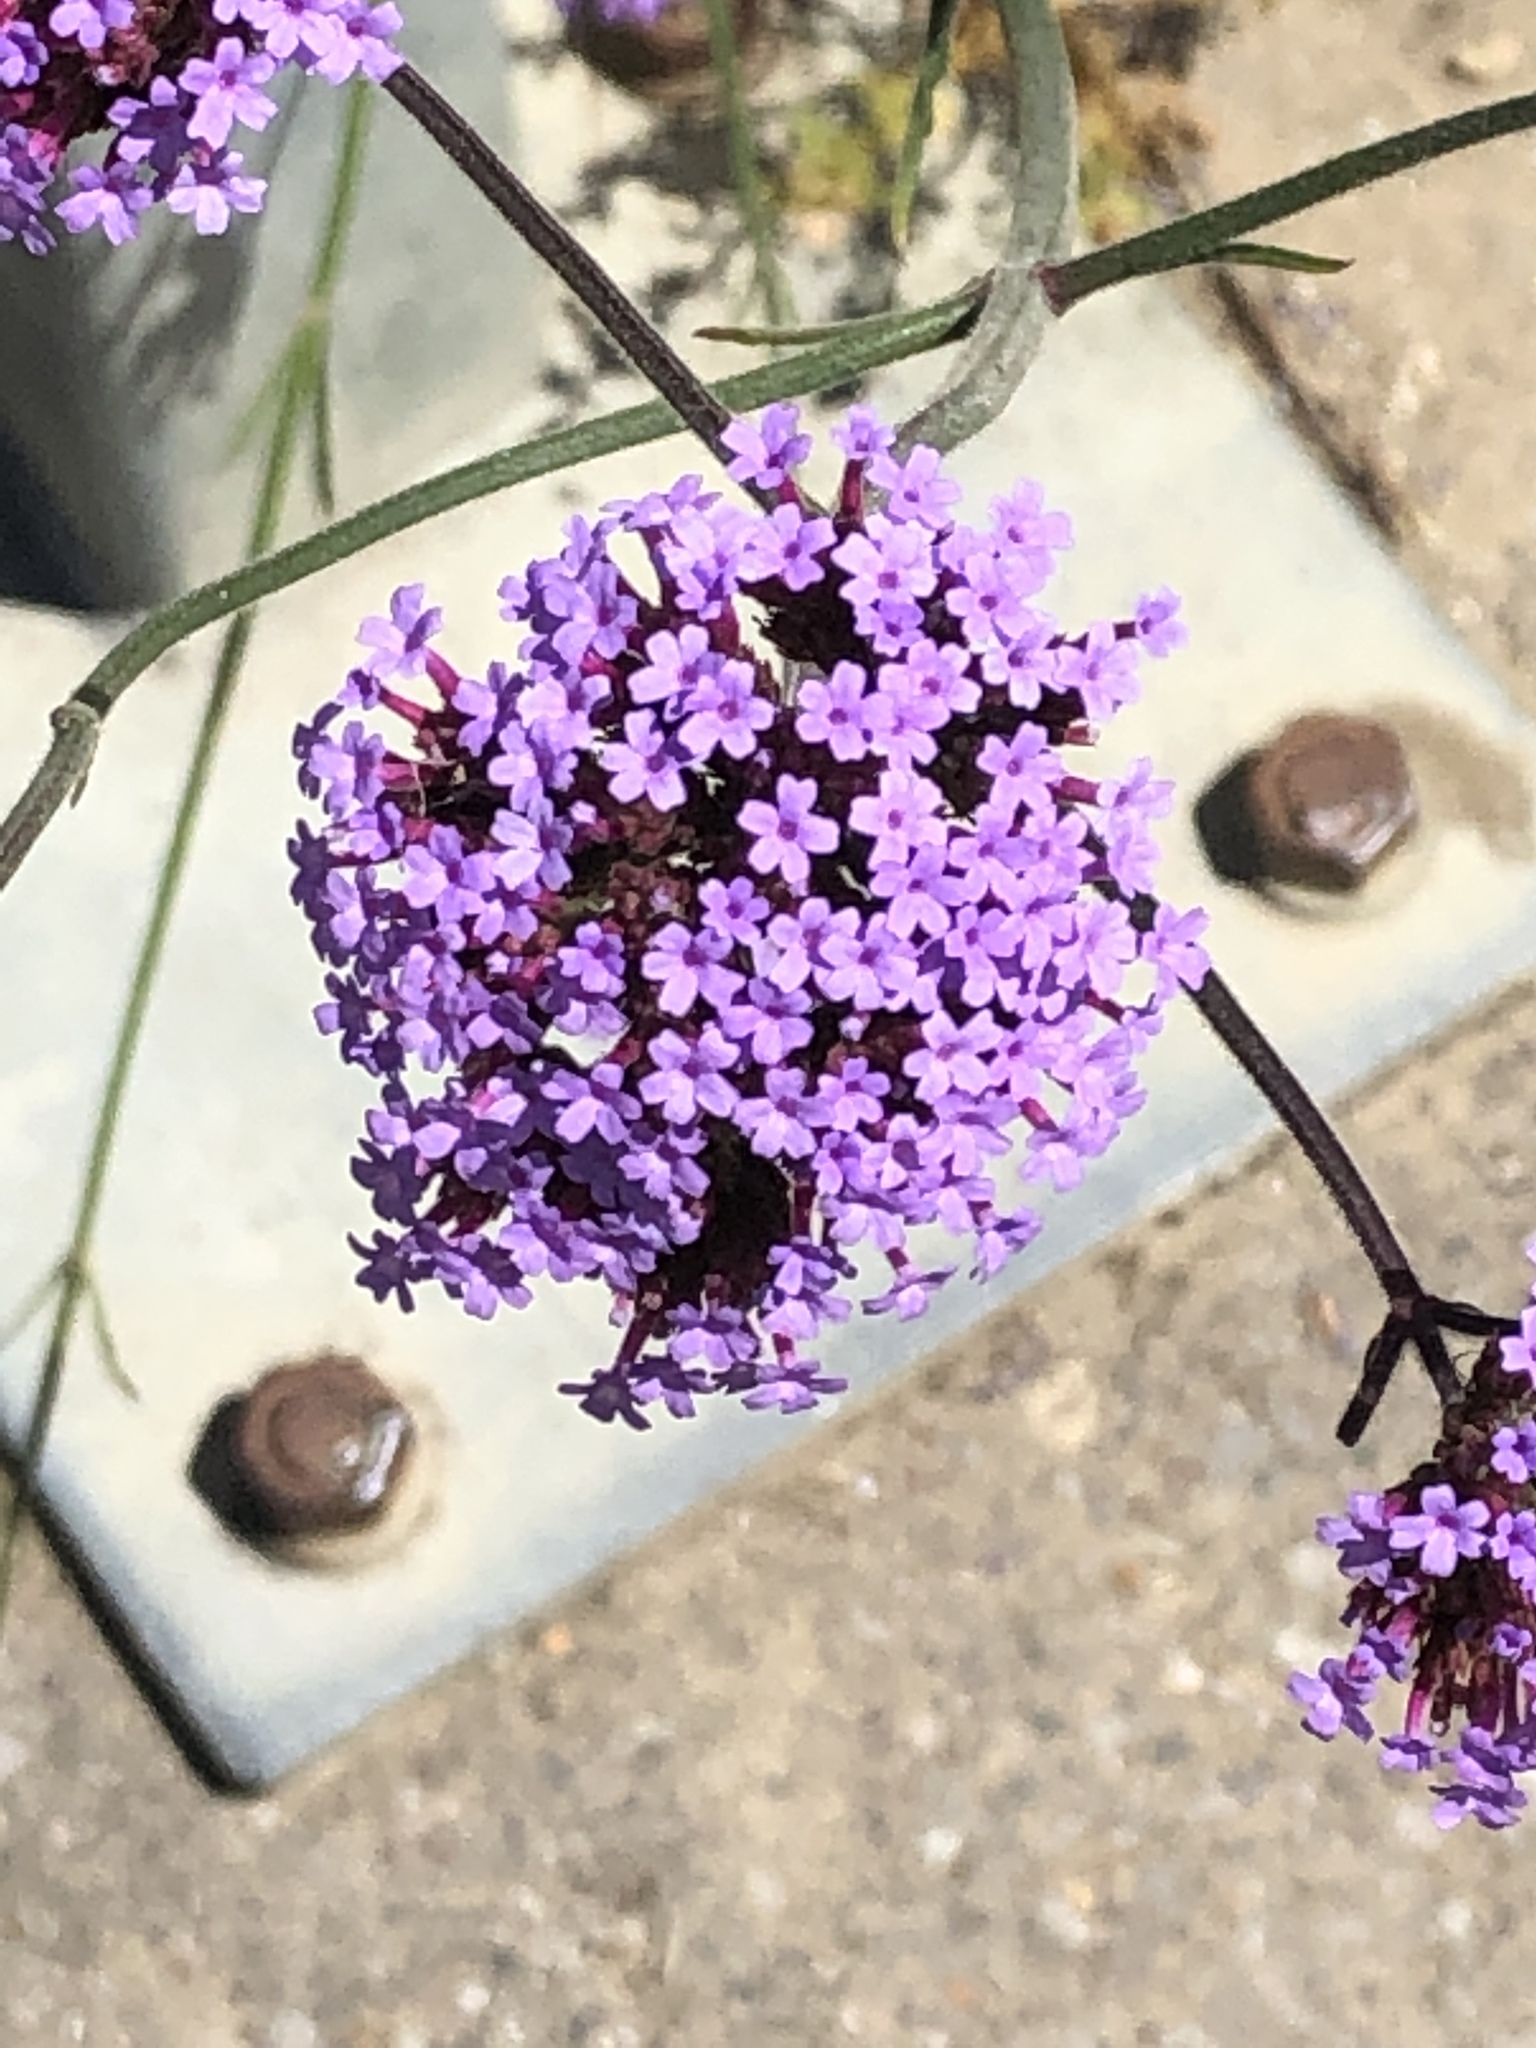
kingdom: Plantae
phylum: Tracheophyta
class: Magnoliopsida
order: Lamiales
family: Verbenaceae
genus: Verbena
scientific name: Verbena bonariensis
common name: Purpletop vervain
